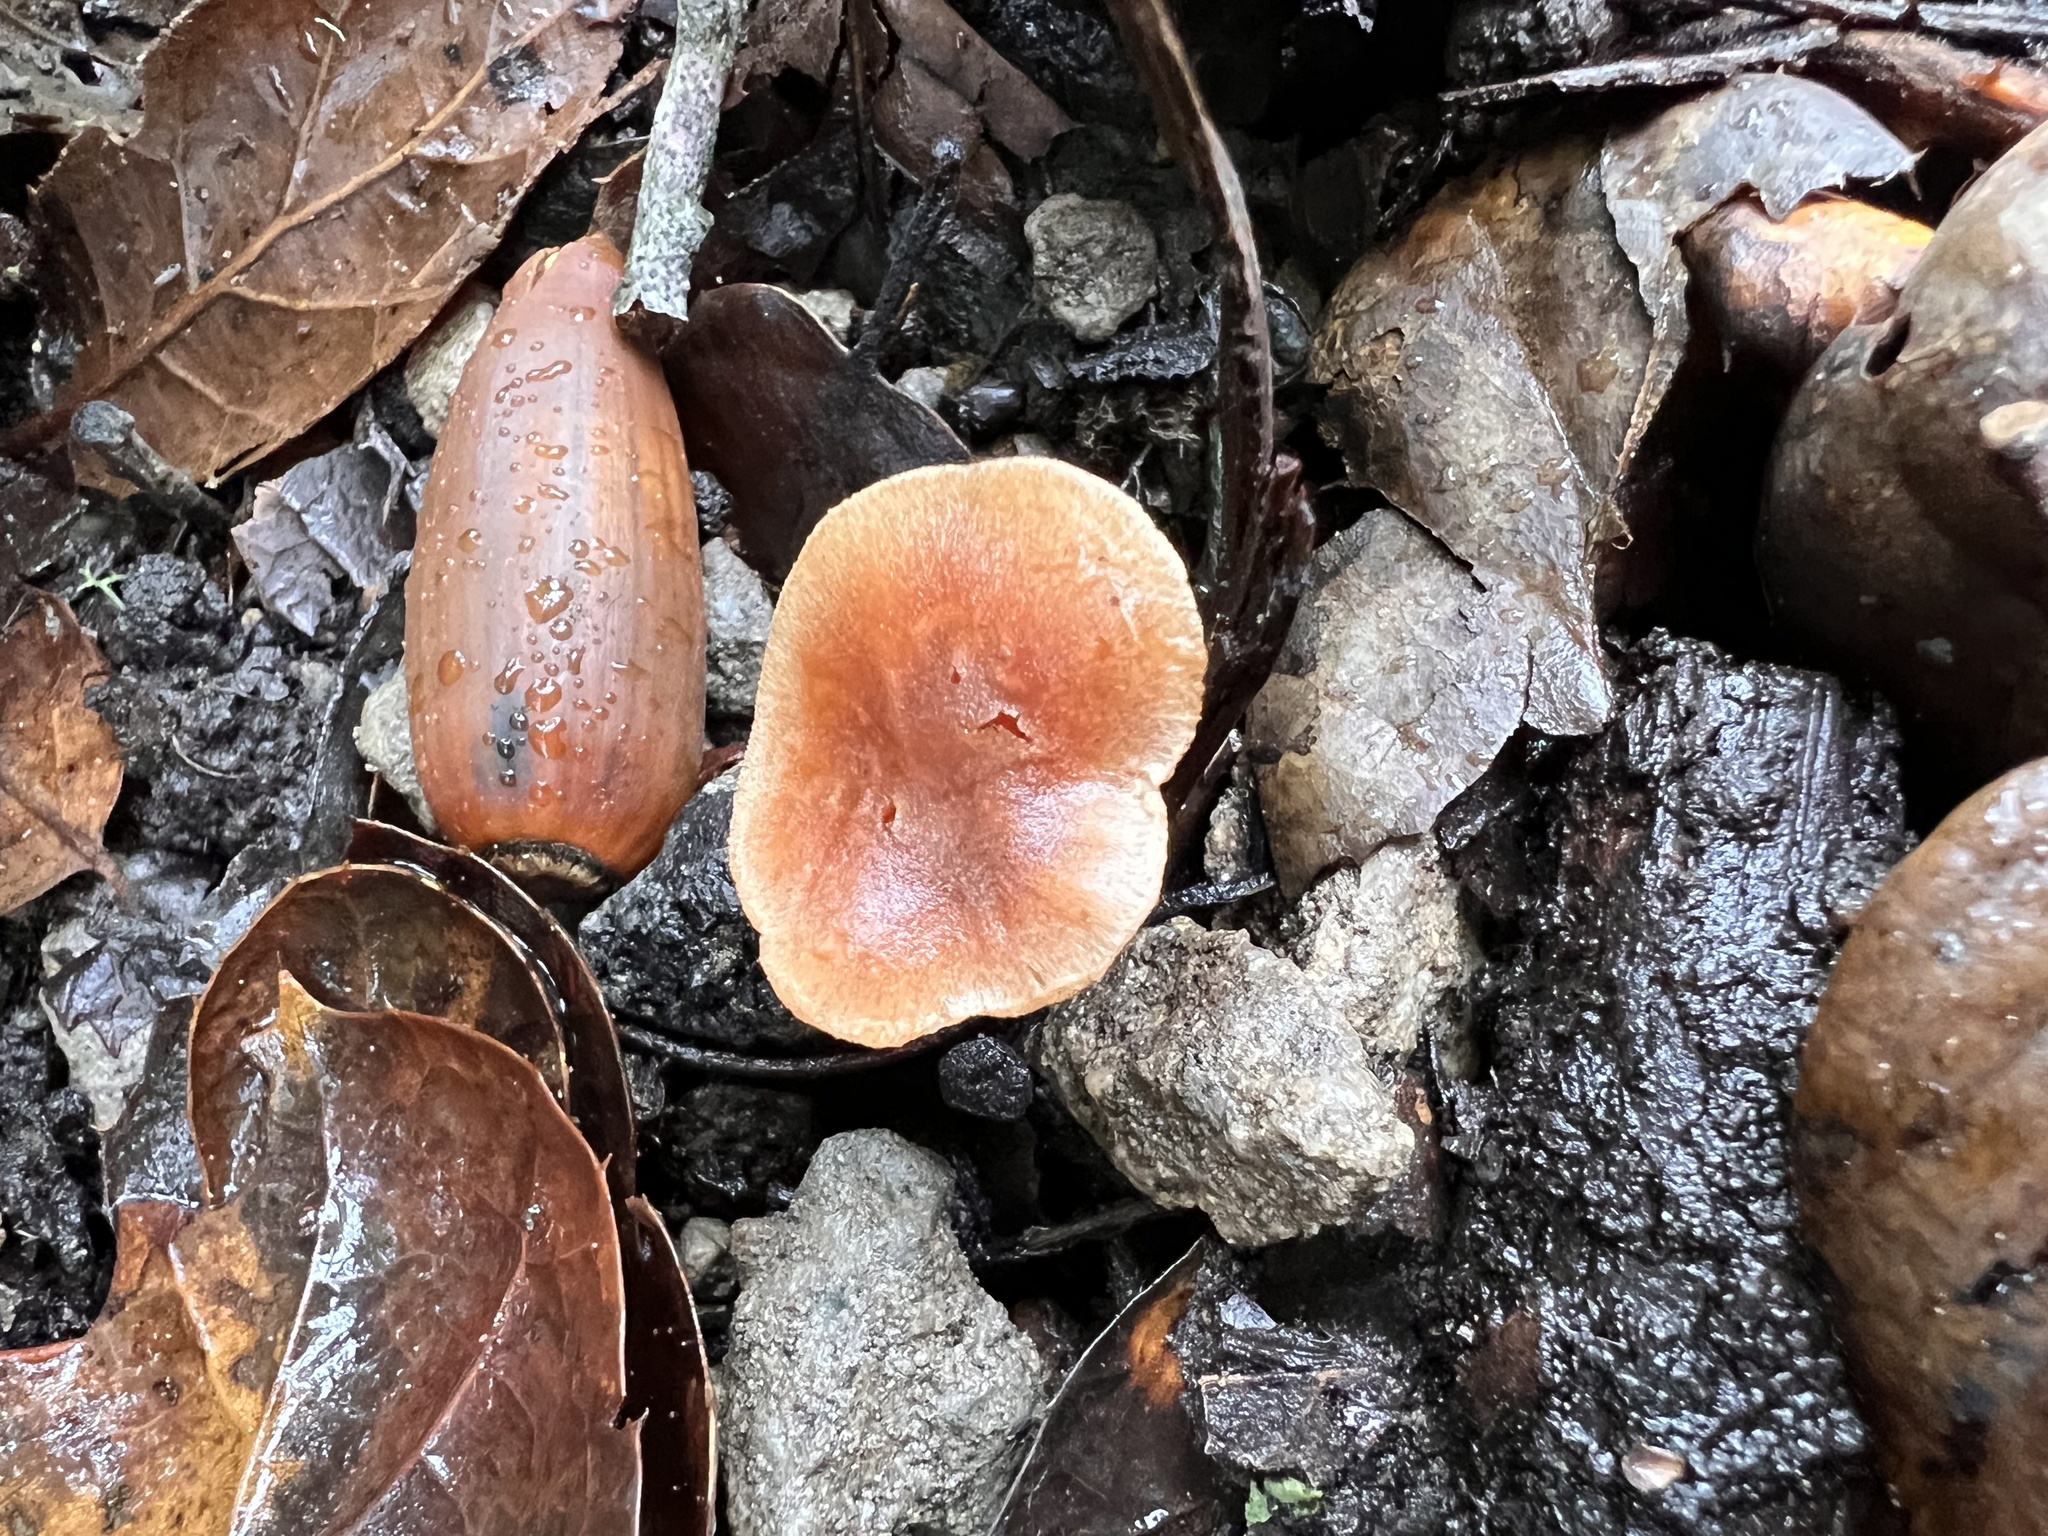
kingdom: Fungi
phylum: Basidiomycota
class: Agaricomycetes
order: Agaricales
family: Tubariaceae
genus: Tubaria
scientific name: Tubaria furfuracea
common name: Scurfy twiglet
